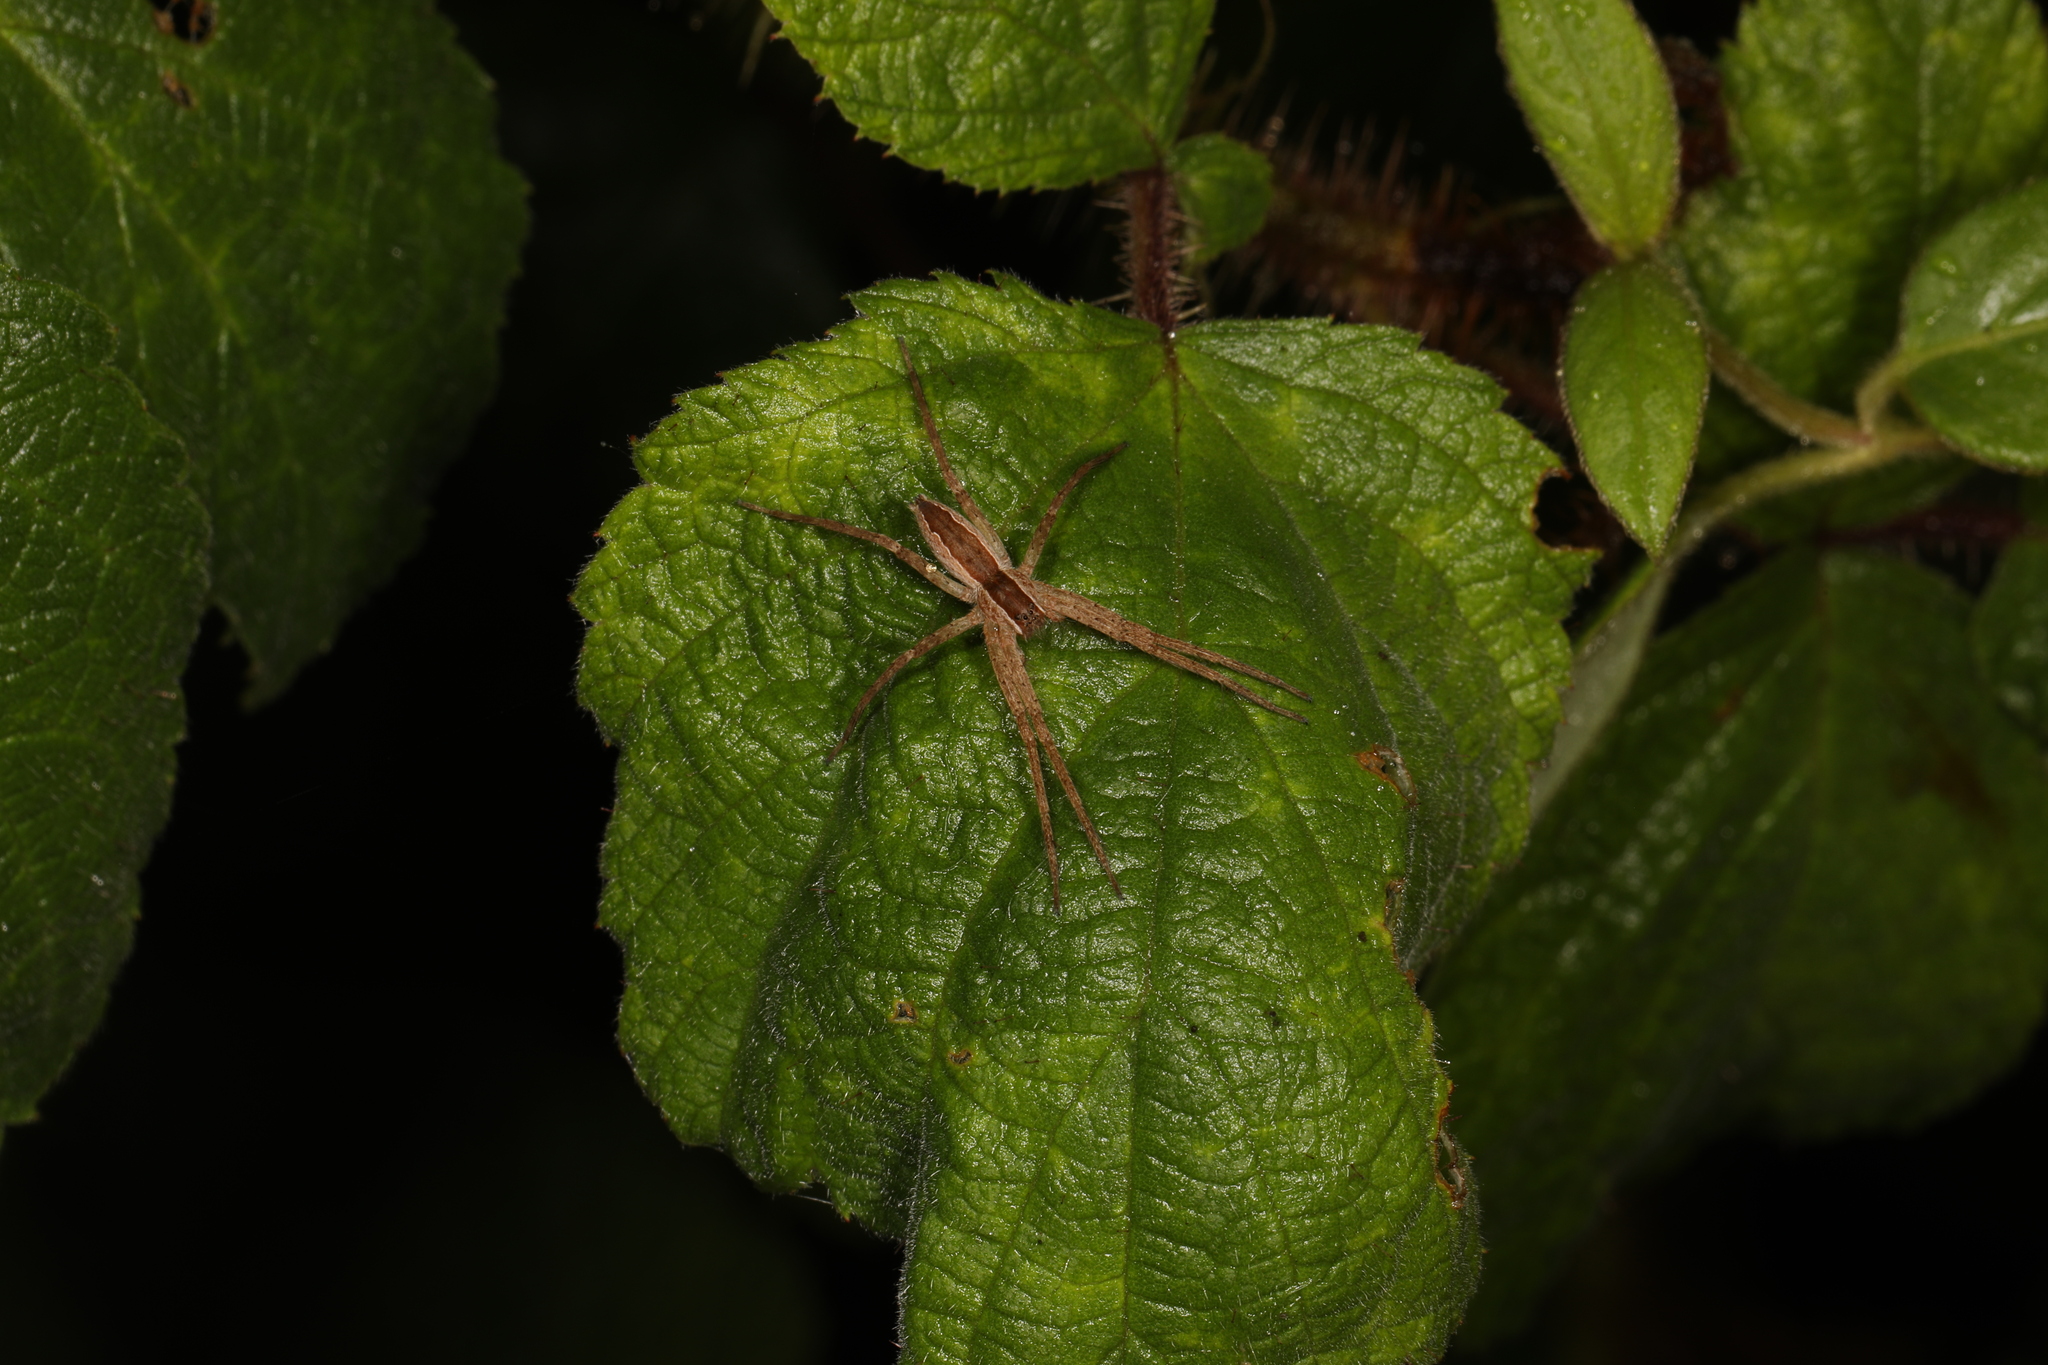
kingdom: Animalia
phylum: Arthropoda
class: Arachnida
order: Araneae
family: Pisauridae
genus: Pisaurina
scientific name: Pisaurina mira
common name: American nursery web spider
